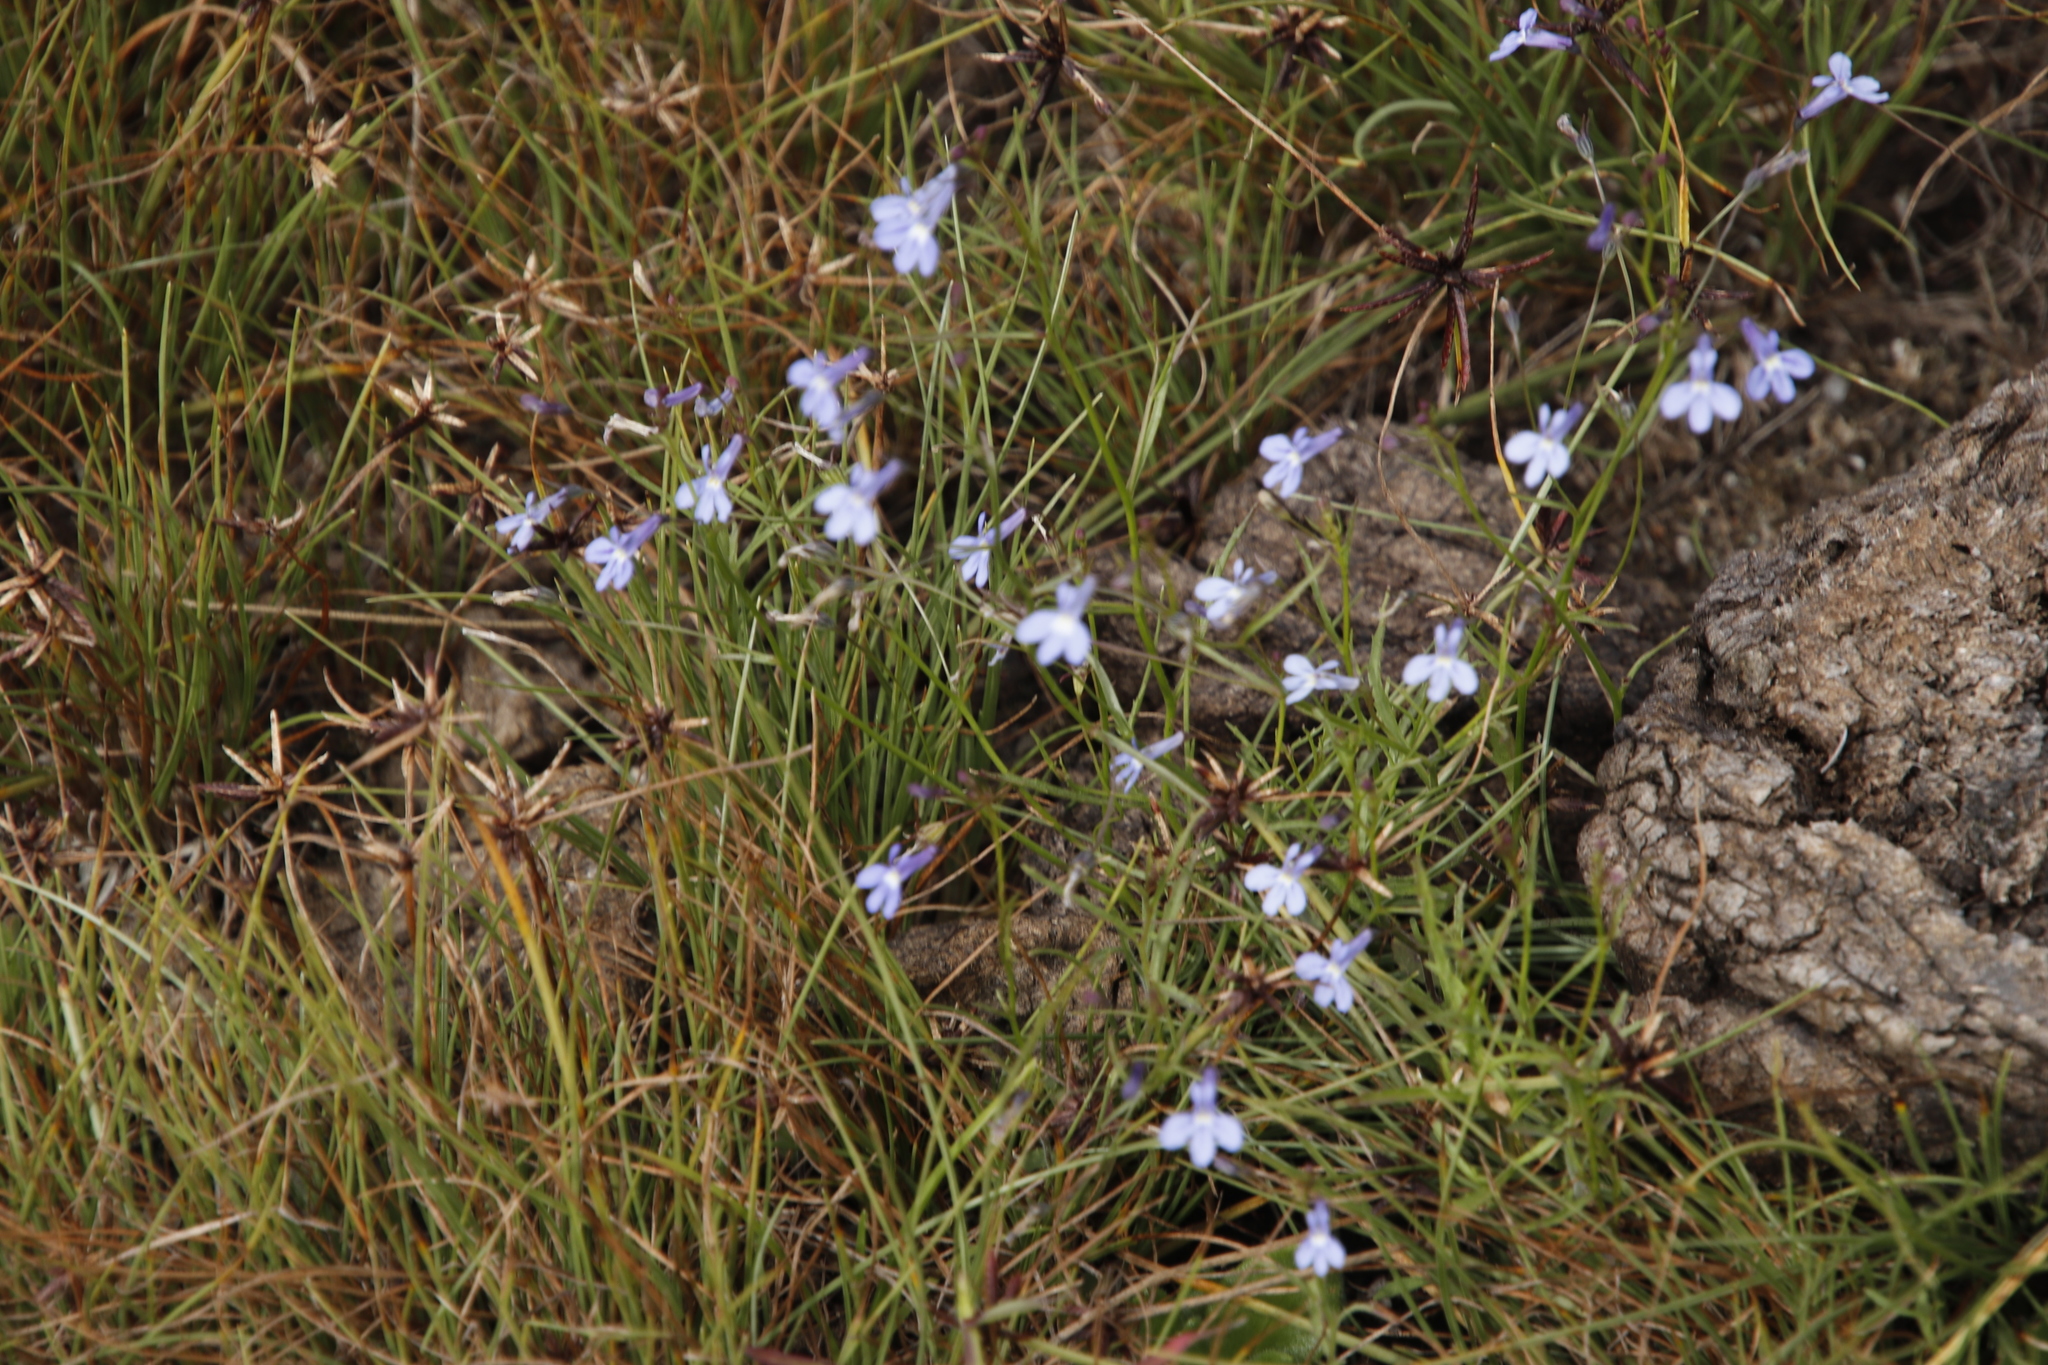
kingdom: Plantae
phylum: Tracheophyta
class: Magnoliopsida
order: Asterales
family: Campanulaceae
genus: Lobelia
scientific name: Lobelia erinus
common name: Edging lobelia
